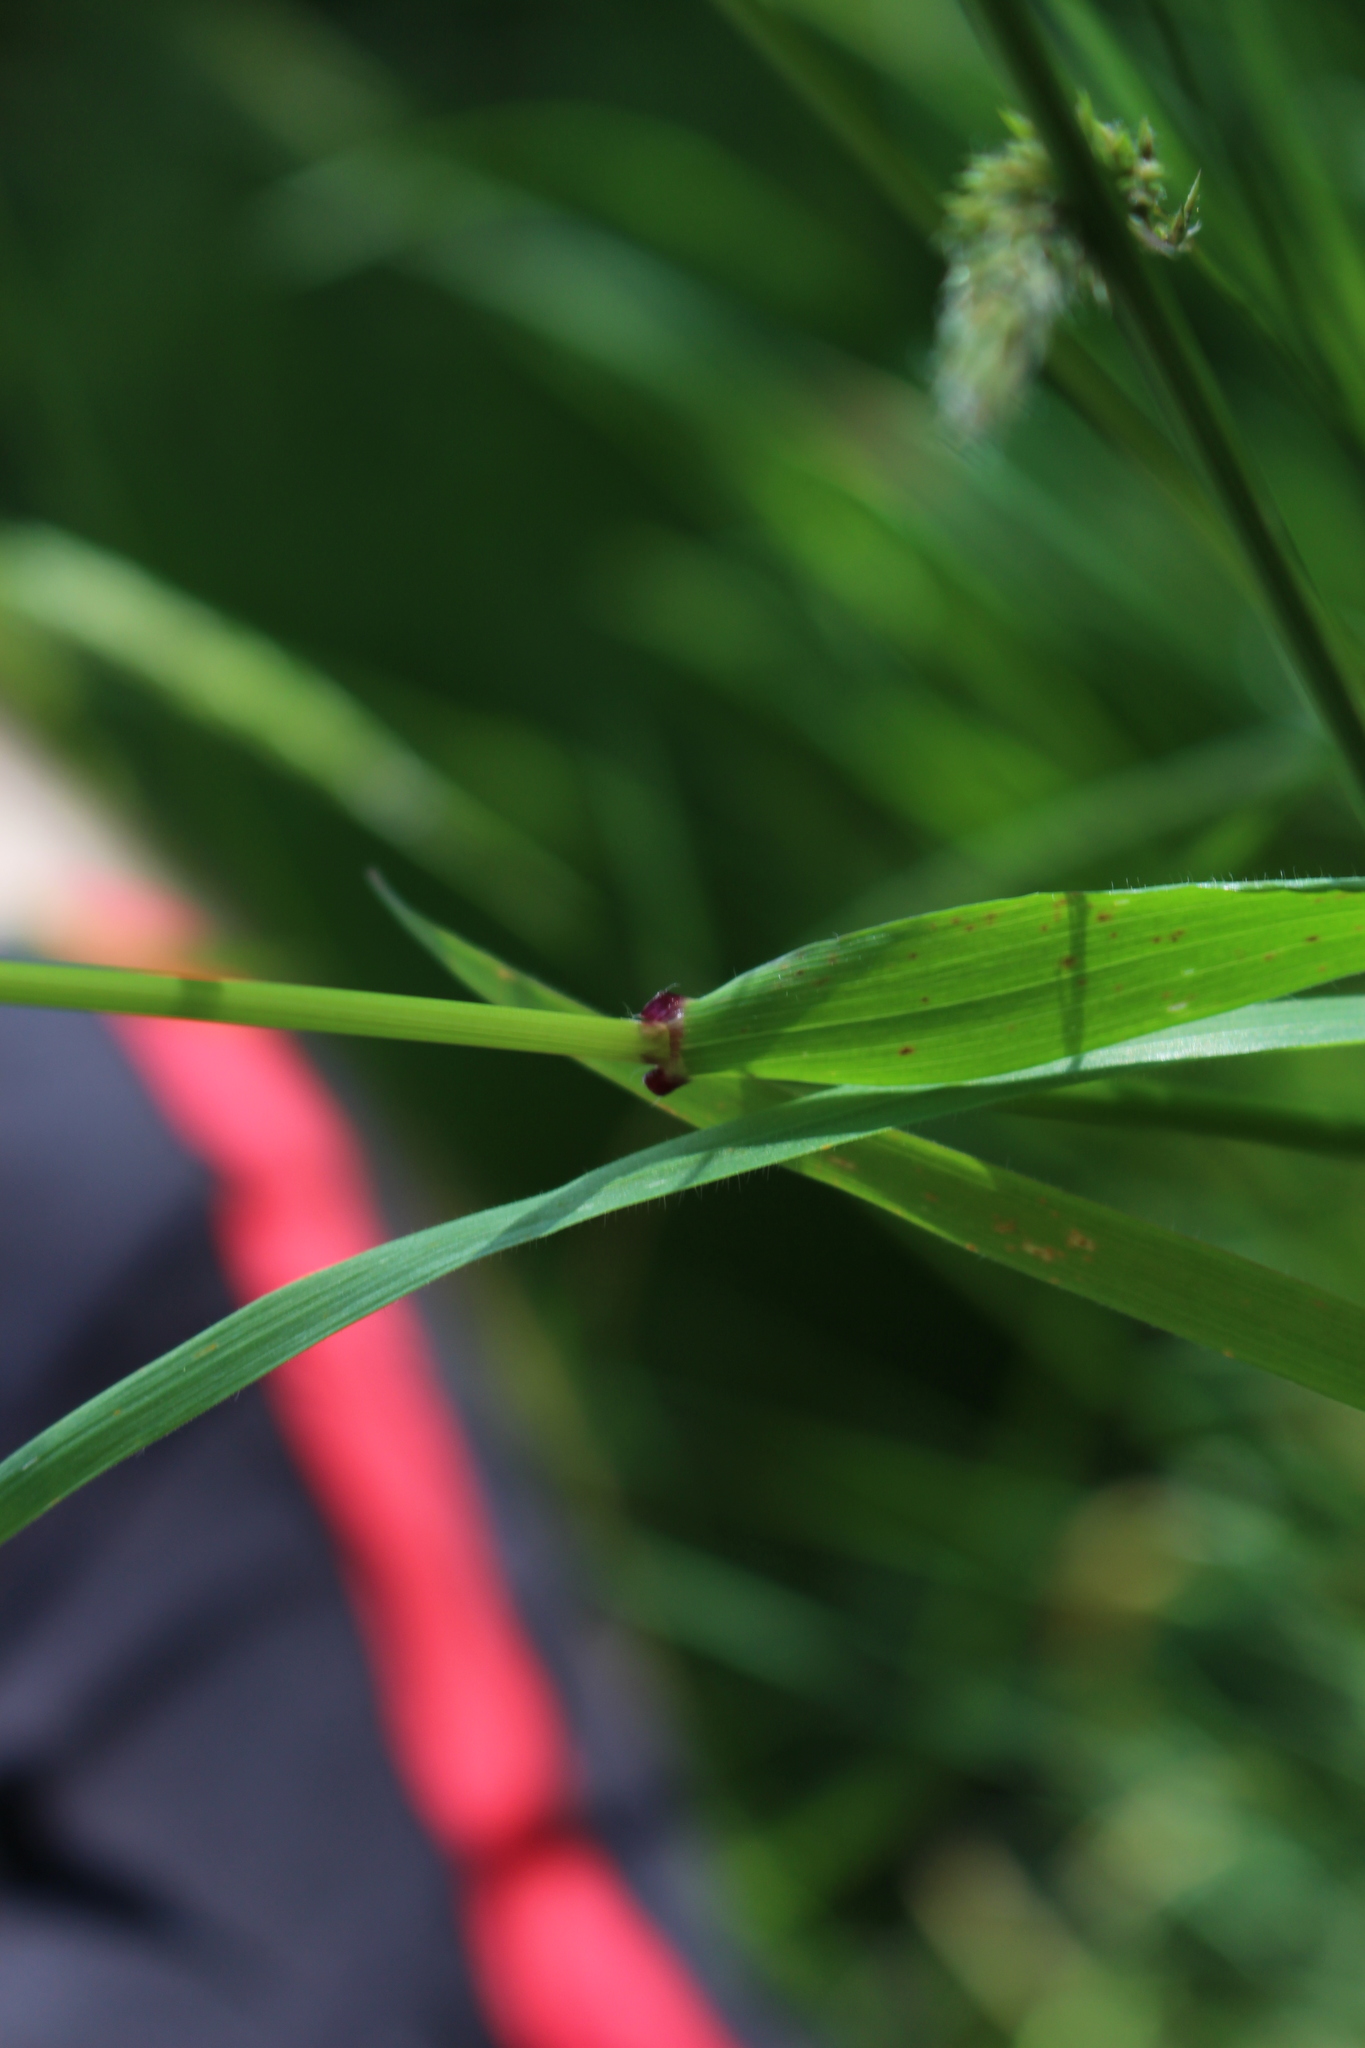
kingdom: Plantae
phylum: Tracheophyta
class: Liliopsida
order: Poales
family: Poaceae
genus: Anthoxanthum
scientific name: Anthoxanthum odoratum
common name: Sweet vernalgrass
